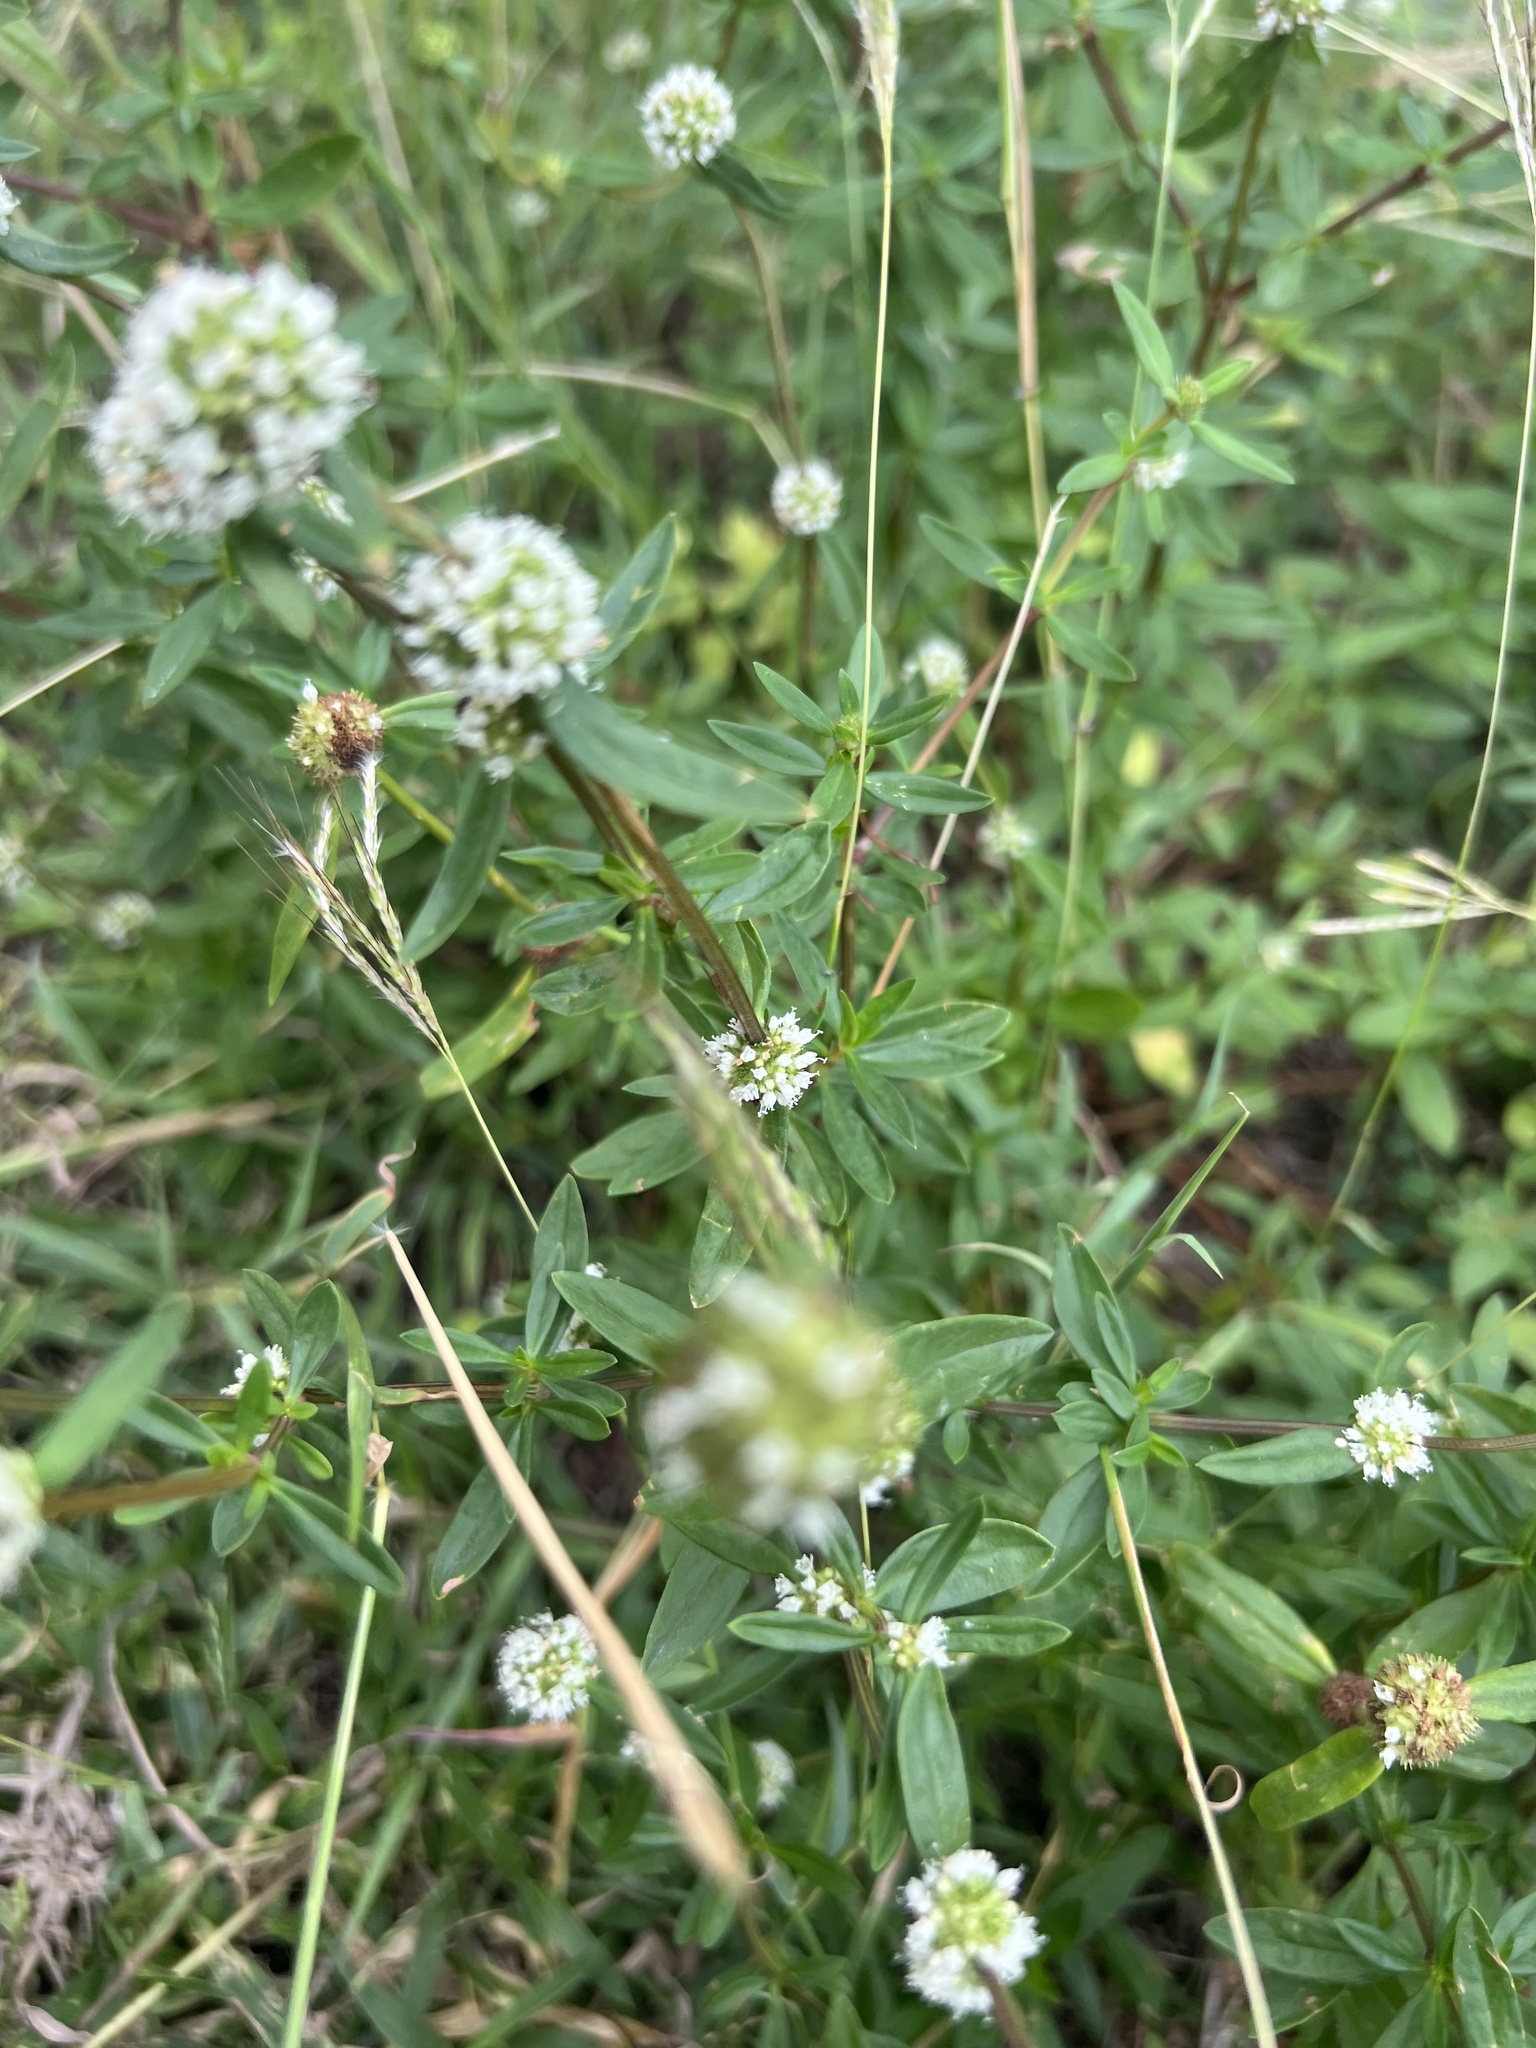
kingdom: Plantae
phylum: Tracheophyta
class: Magnoliopsida
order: Gentianales
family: Rubiaceae
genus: Spermacoce
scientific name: Spermacoce verticillata
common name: Shrubby false buttonweed
